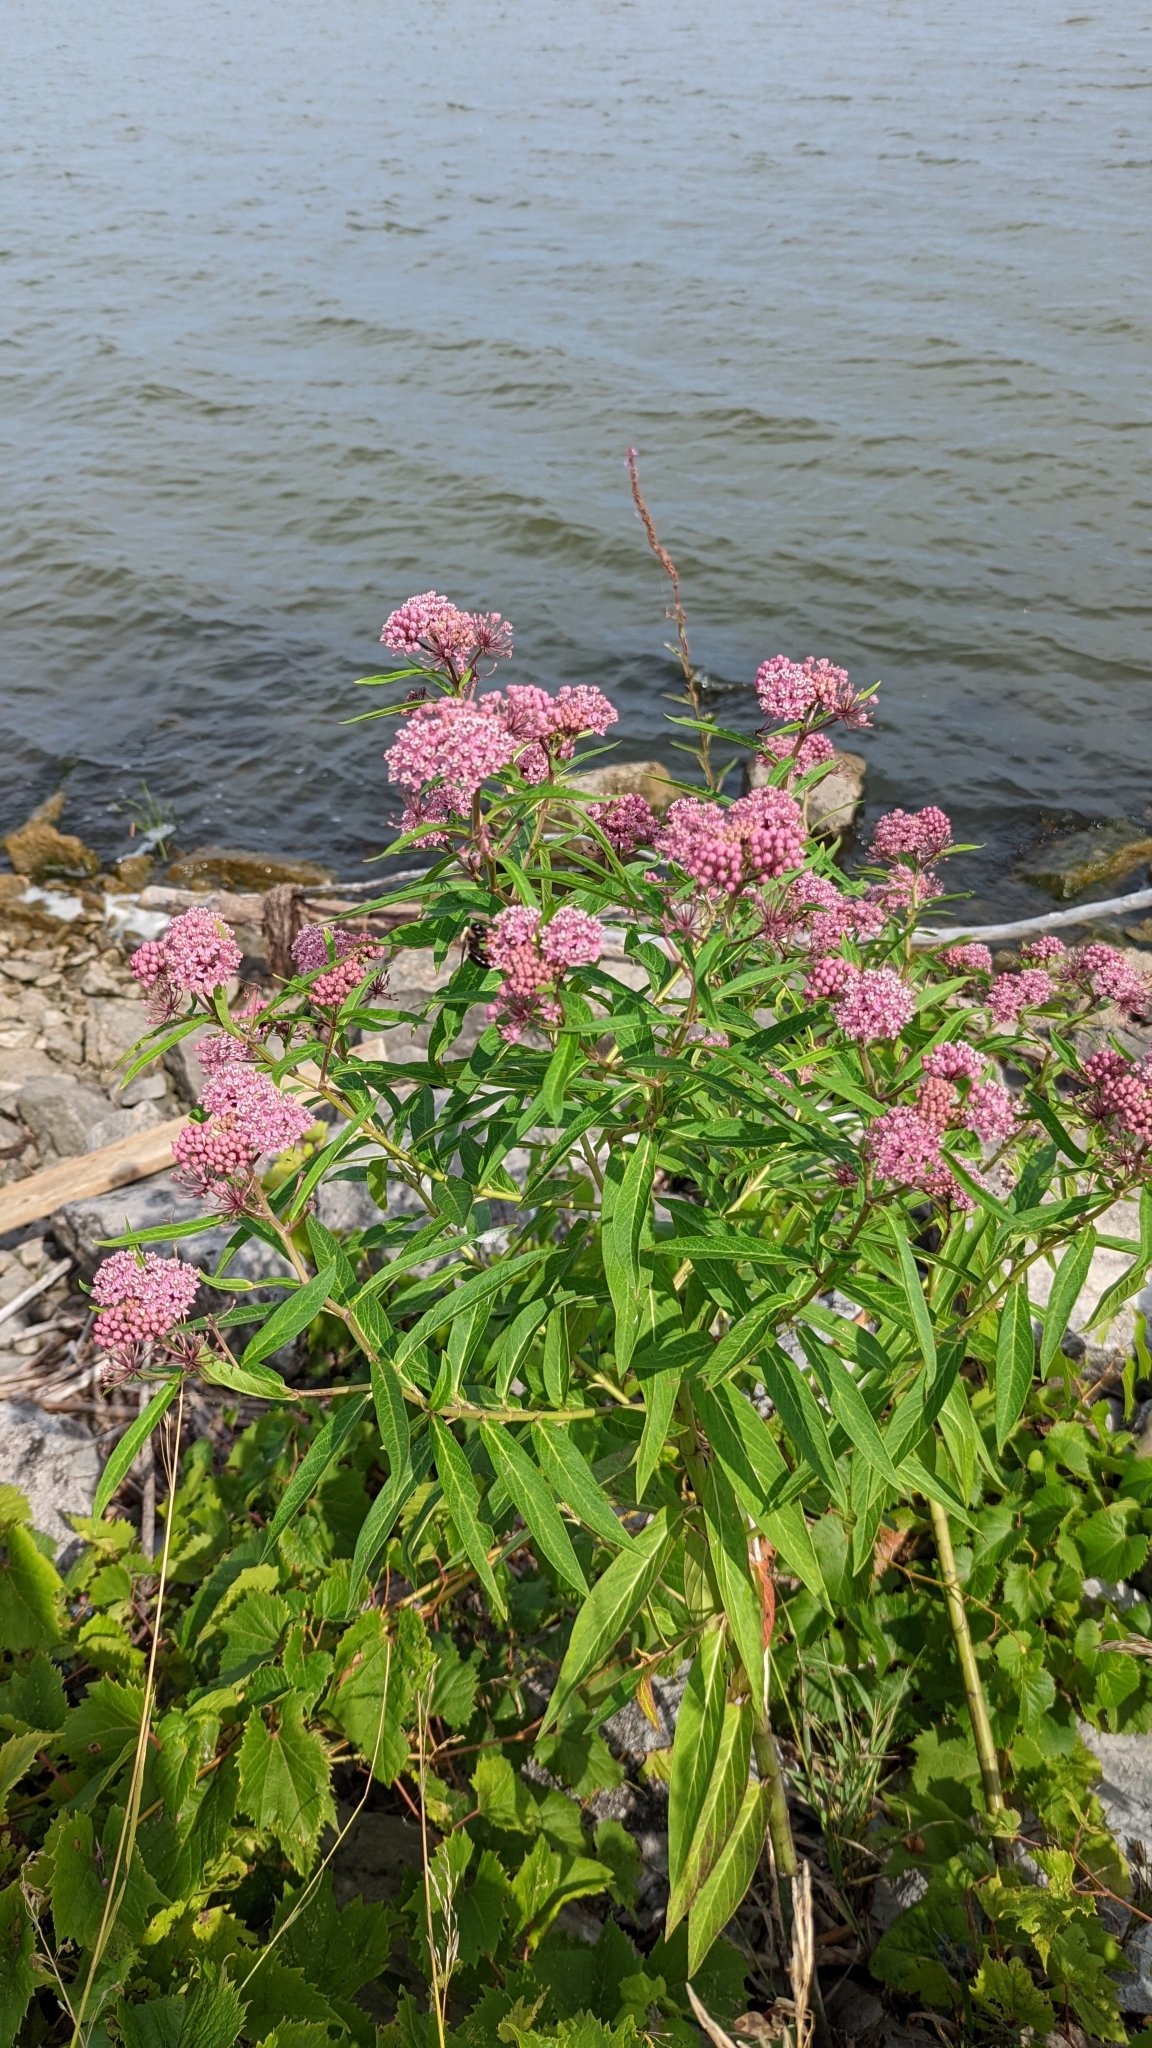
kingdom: Plantae
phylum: Tracheophyta
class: Magnoliopsida
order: Gentianales
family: Apocynaceae
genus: Asclepias
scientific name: Asclepias incarnata
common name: Swamp milkweed
